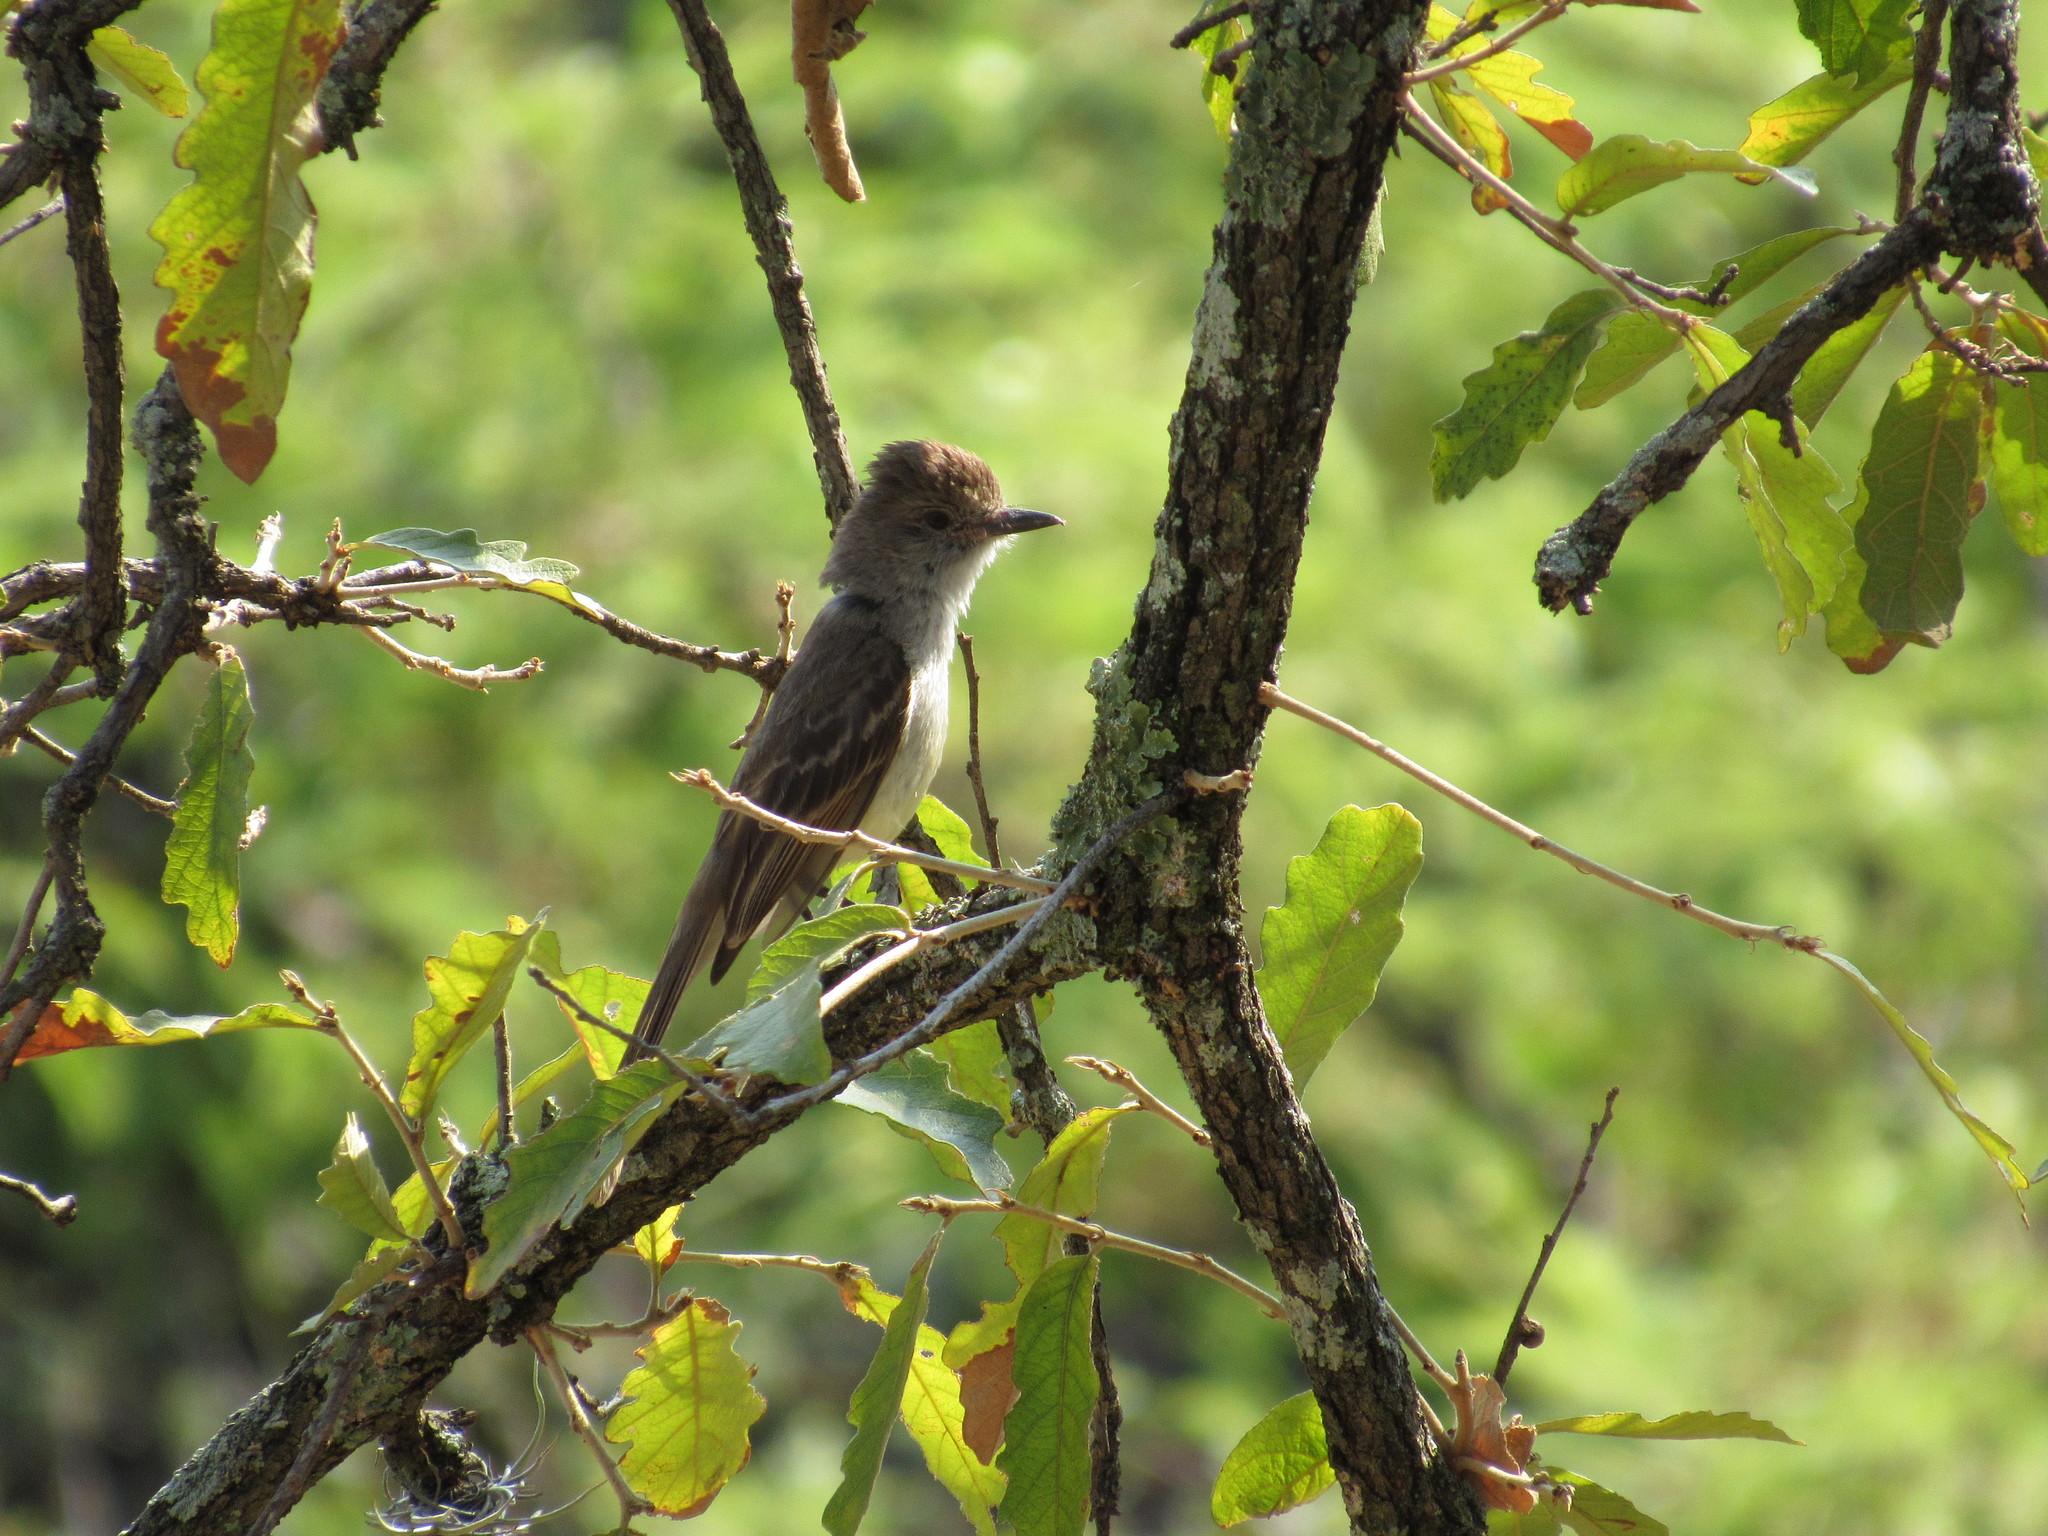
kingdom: Animalia
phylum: Chordata
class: Aves
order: Passeriformes
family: Tyrannidae
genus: Myiarchus
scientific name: Myiarchus cinerascens
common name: Ash-throated flycatcher
